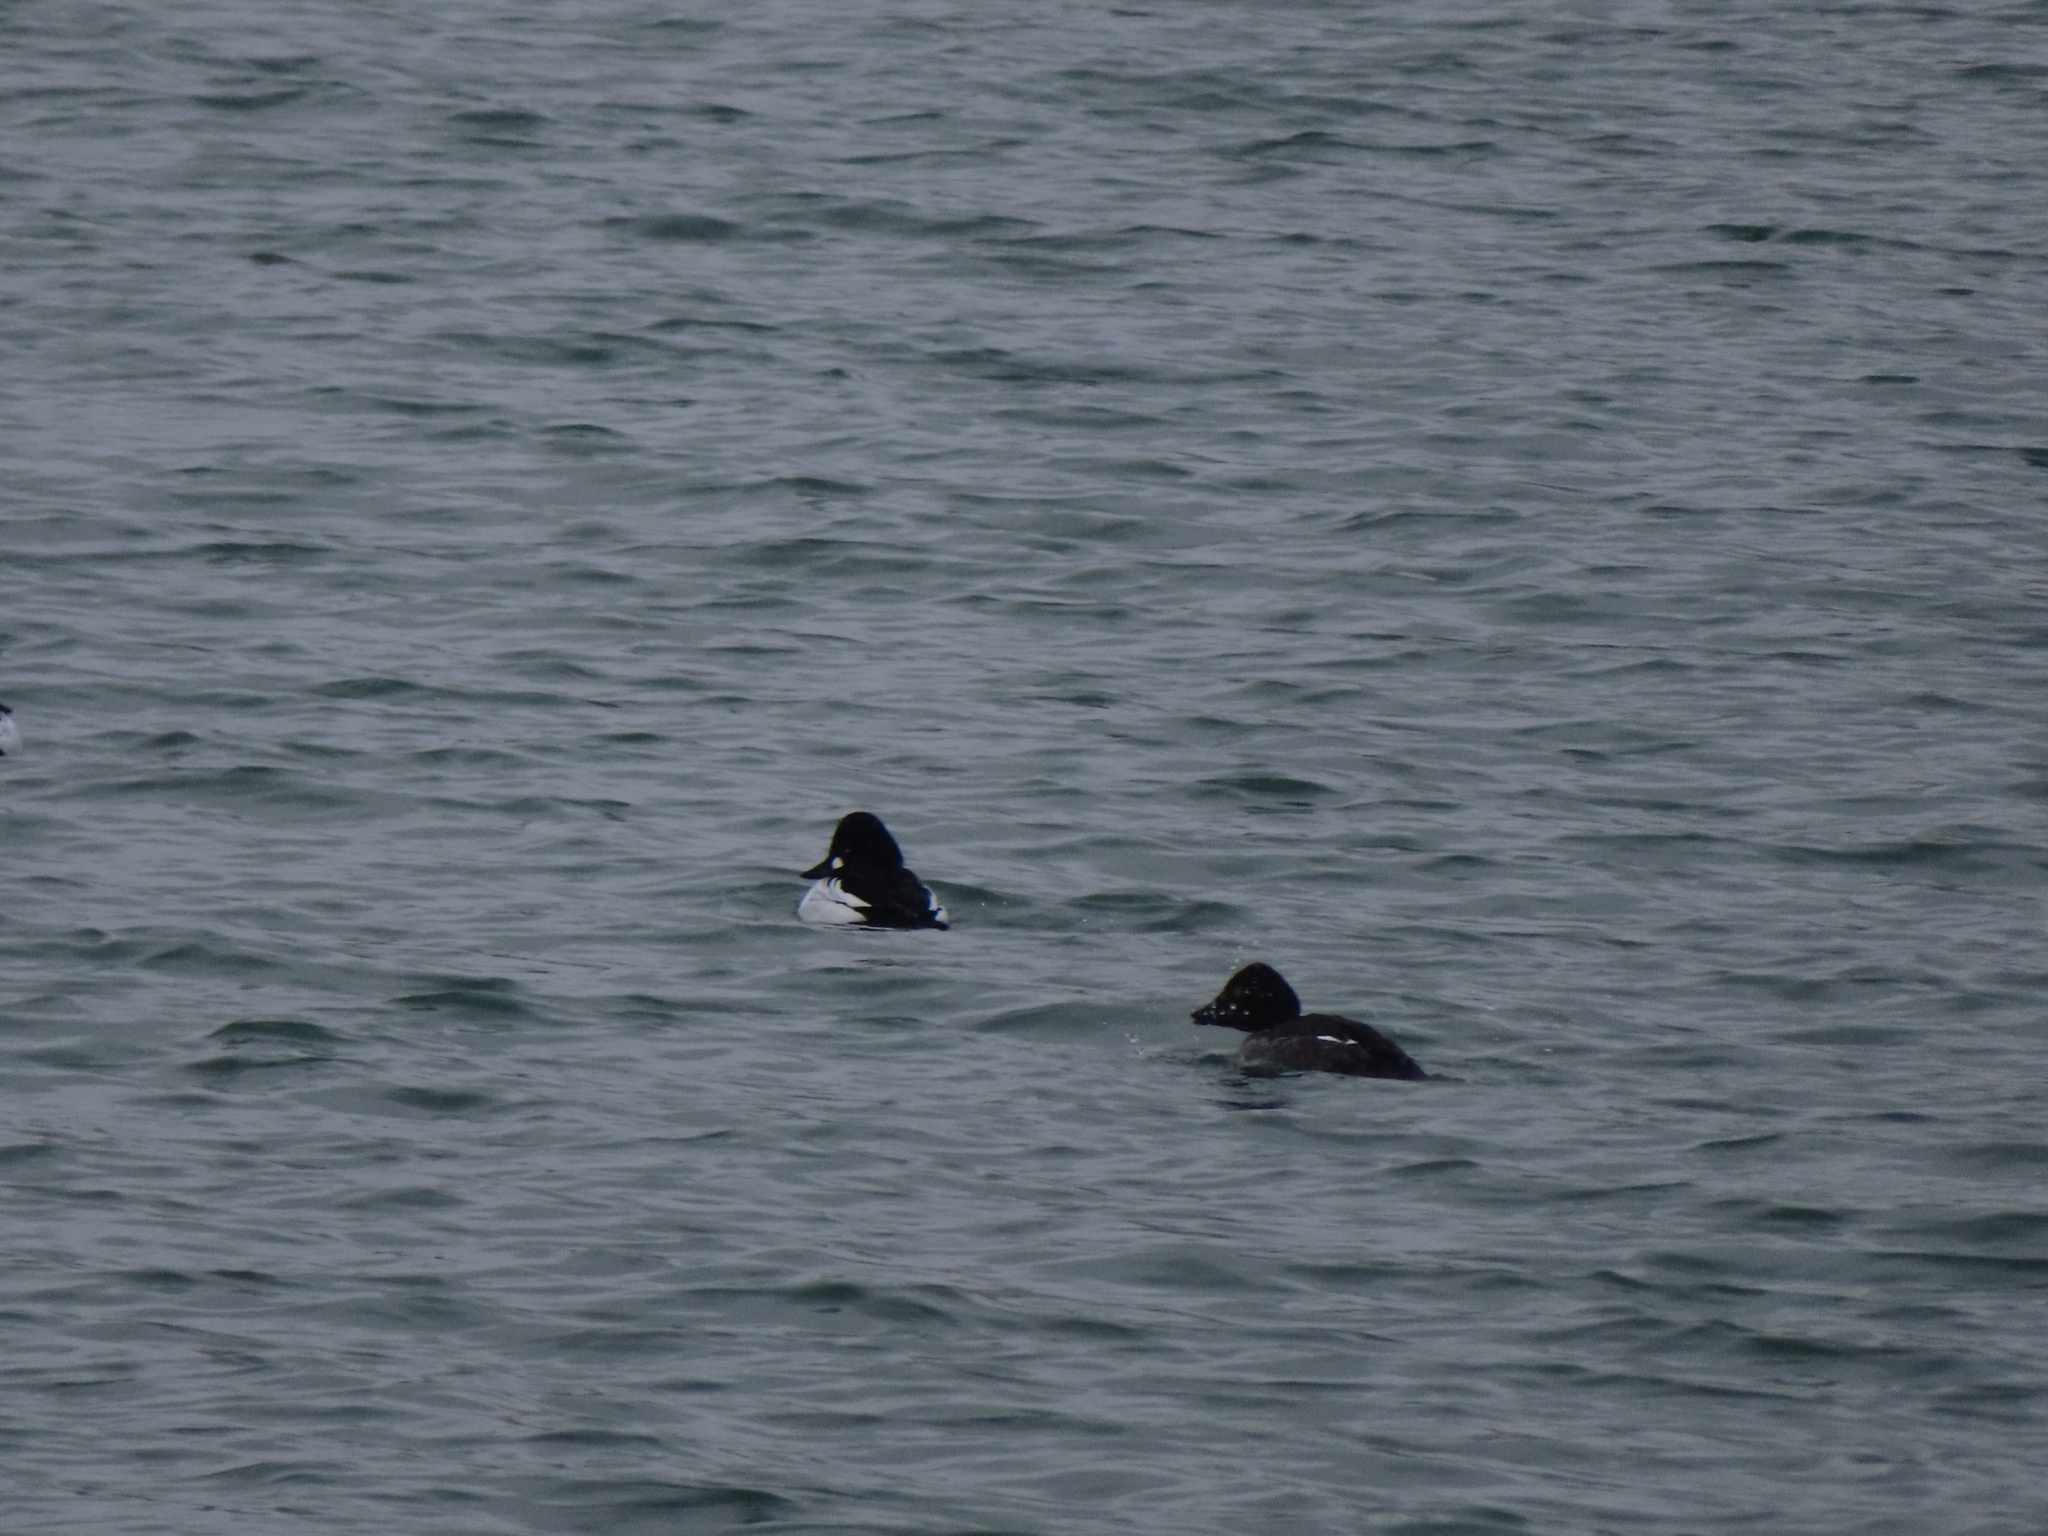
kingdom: Animalia
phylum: Chordata
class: Aves
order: Anseriformes
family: Anatidae
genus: Bucephala
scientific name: Bucephala clangula
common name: Common goldeneye
